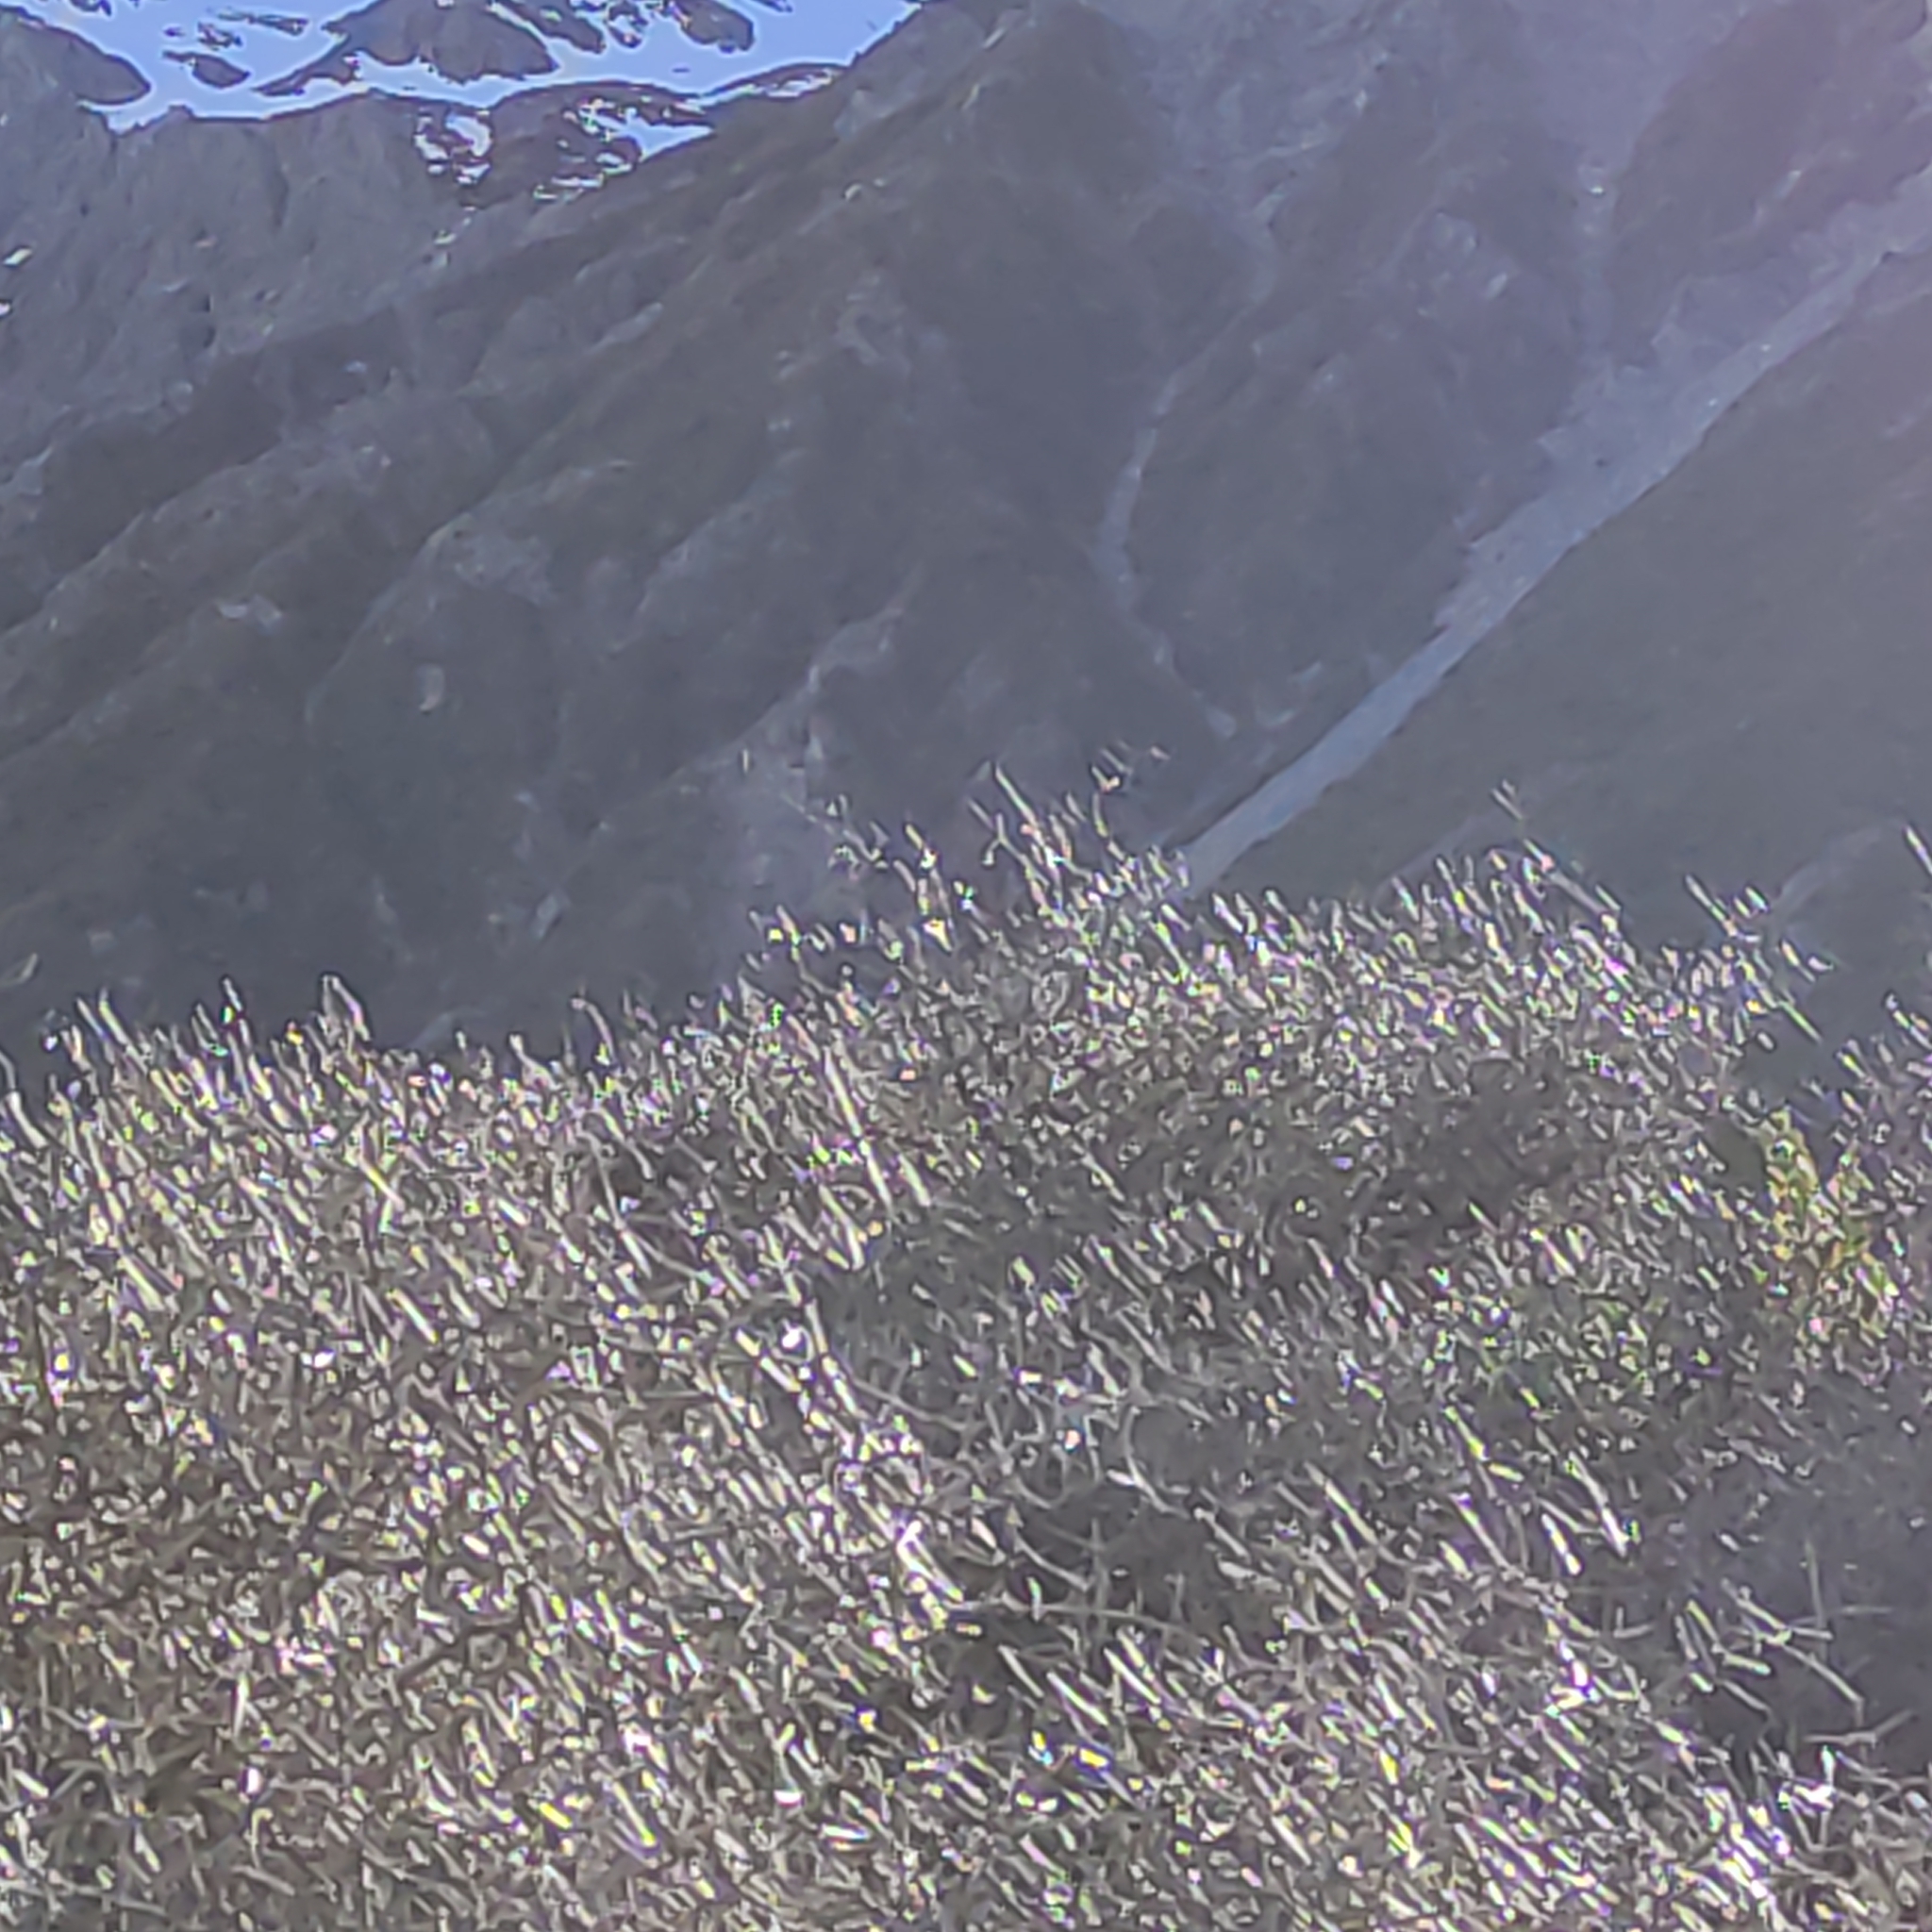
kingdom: Animalia
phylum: Chordata
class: Aves
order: Passeriformes
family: Turdidae
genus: Turdus
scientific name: Turdus philomelos
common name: Song thrush
